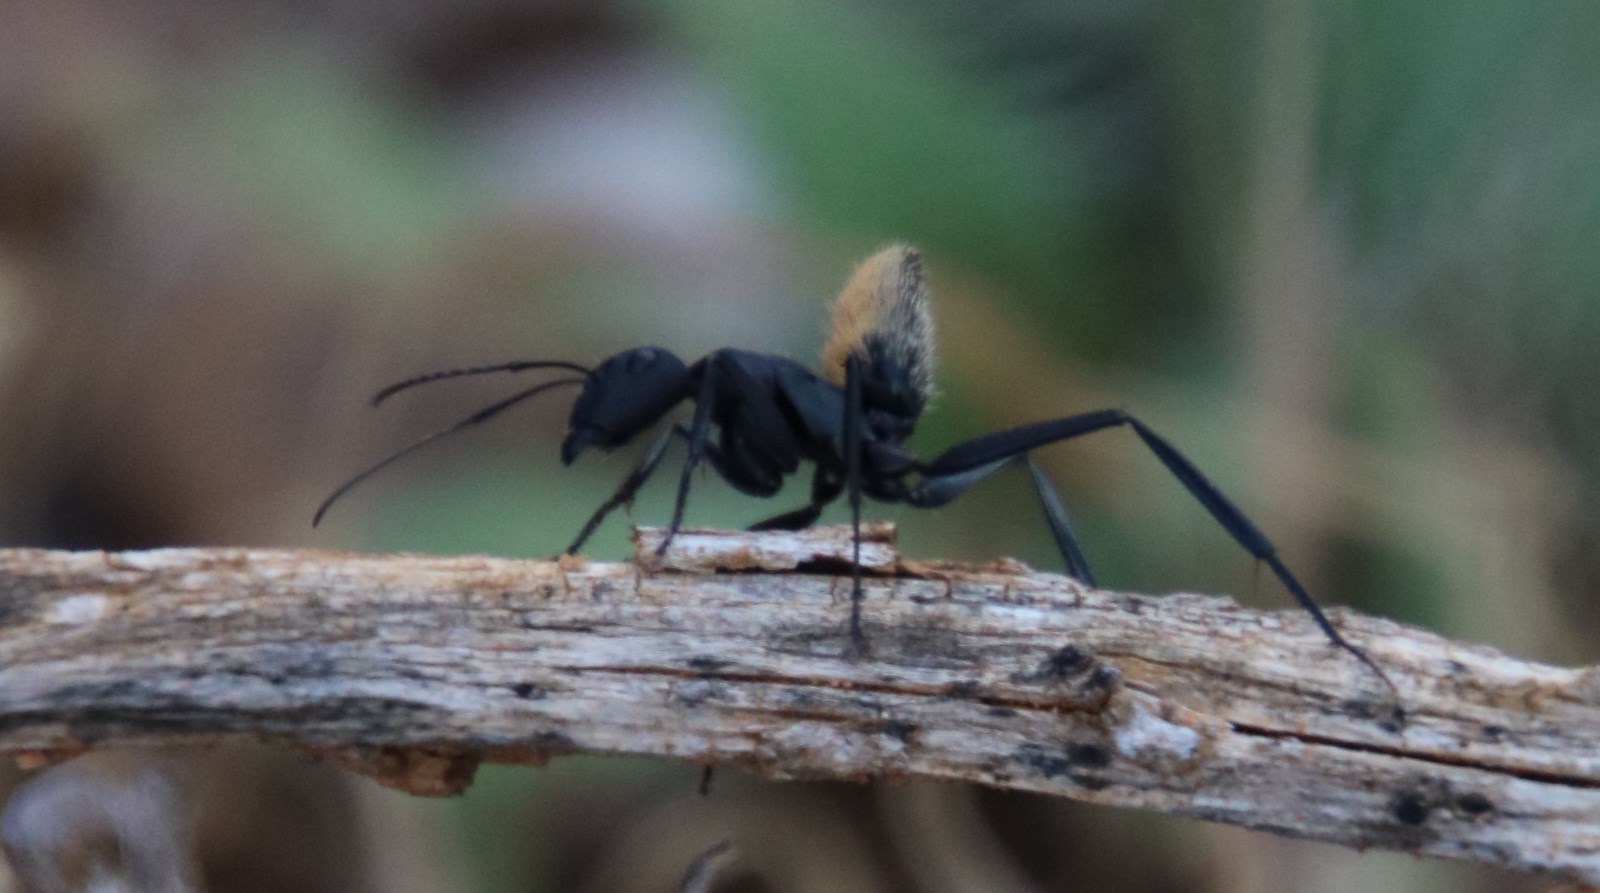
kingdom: Animalia
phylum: Arthropoda
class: Insecta
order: Hymenoptera
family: Formicidae
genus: Camponotus
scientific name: Camponotus fulvopilosus
